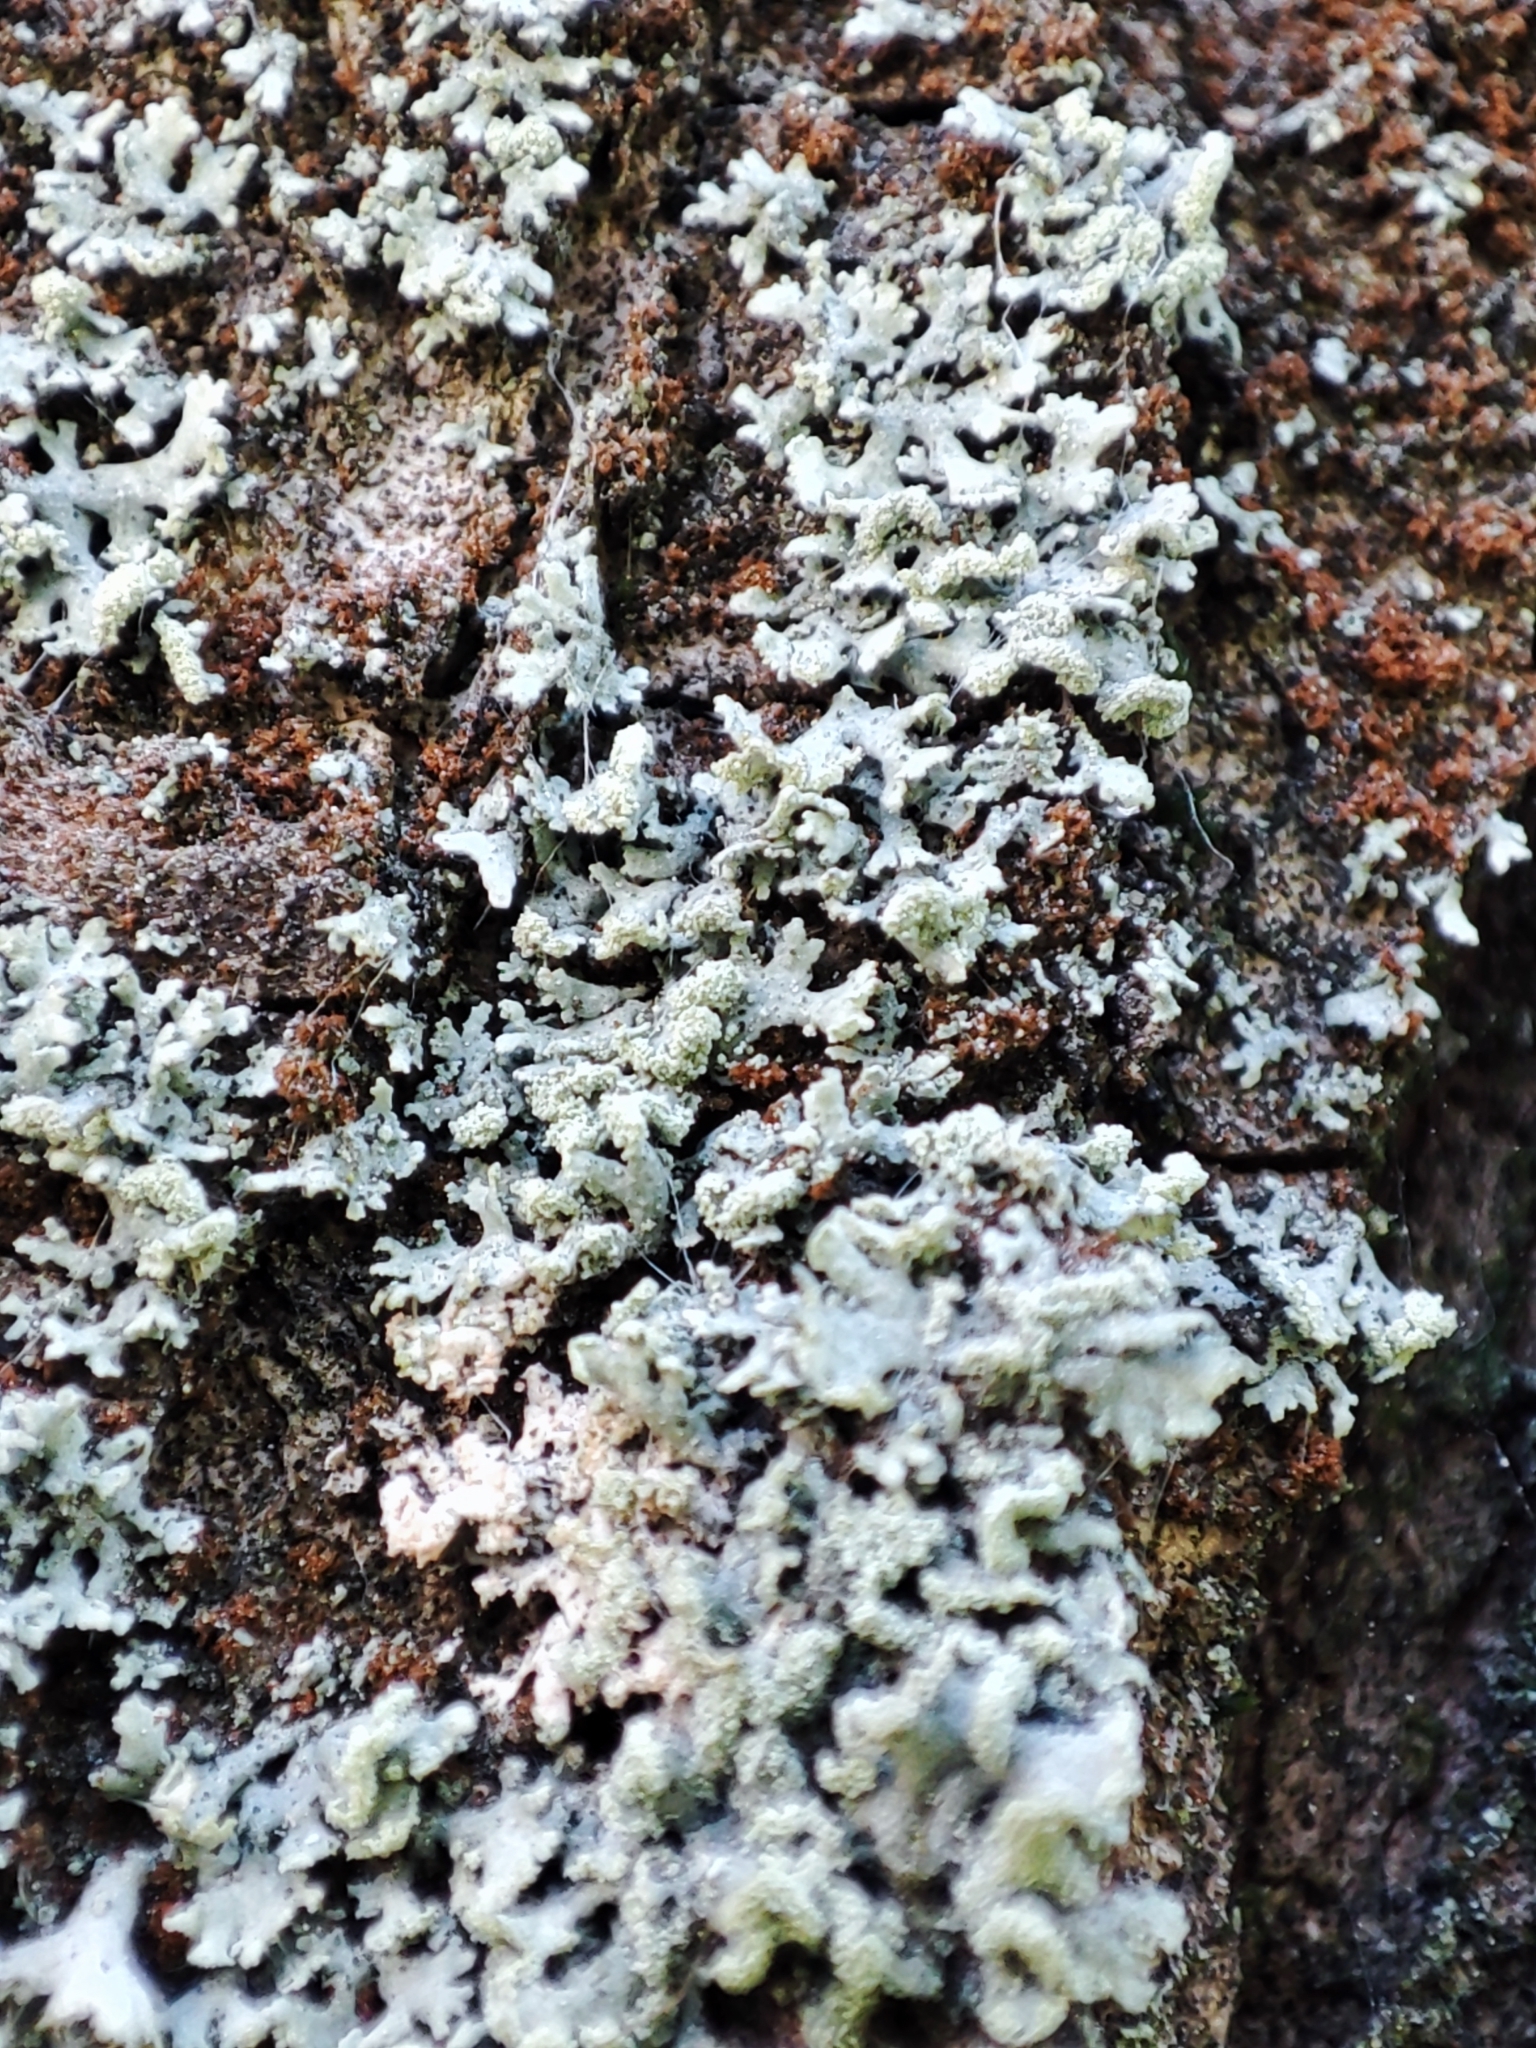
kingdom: Fungi
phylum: Ascomycota
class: Lecanoromycetes
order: Caliciales
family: Physciaceae
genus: Physcia
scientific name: Physcia tenella
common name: Fringed rosette lichen
